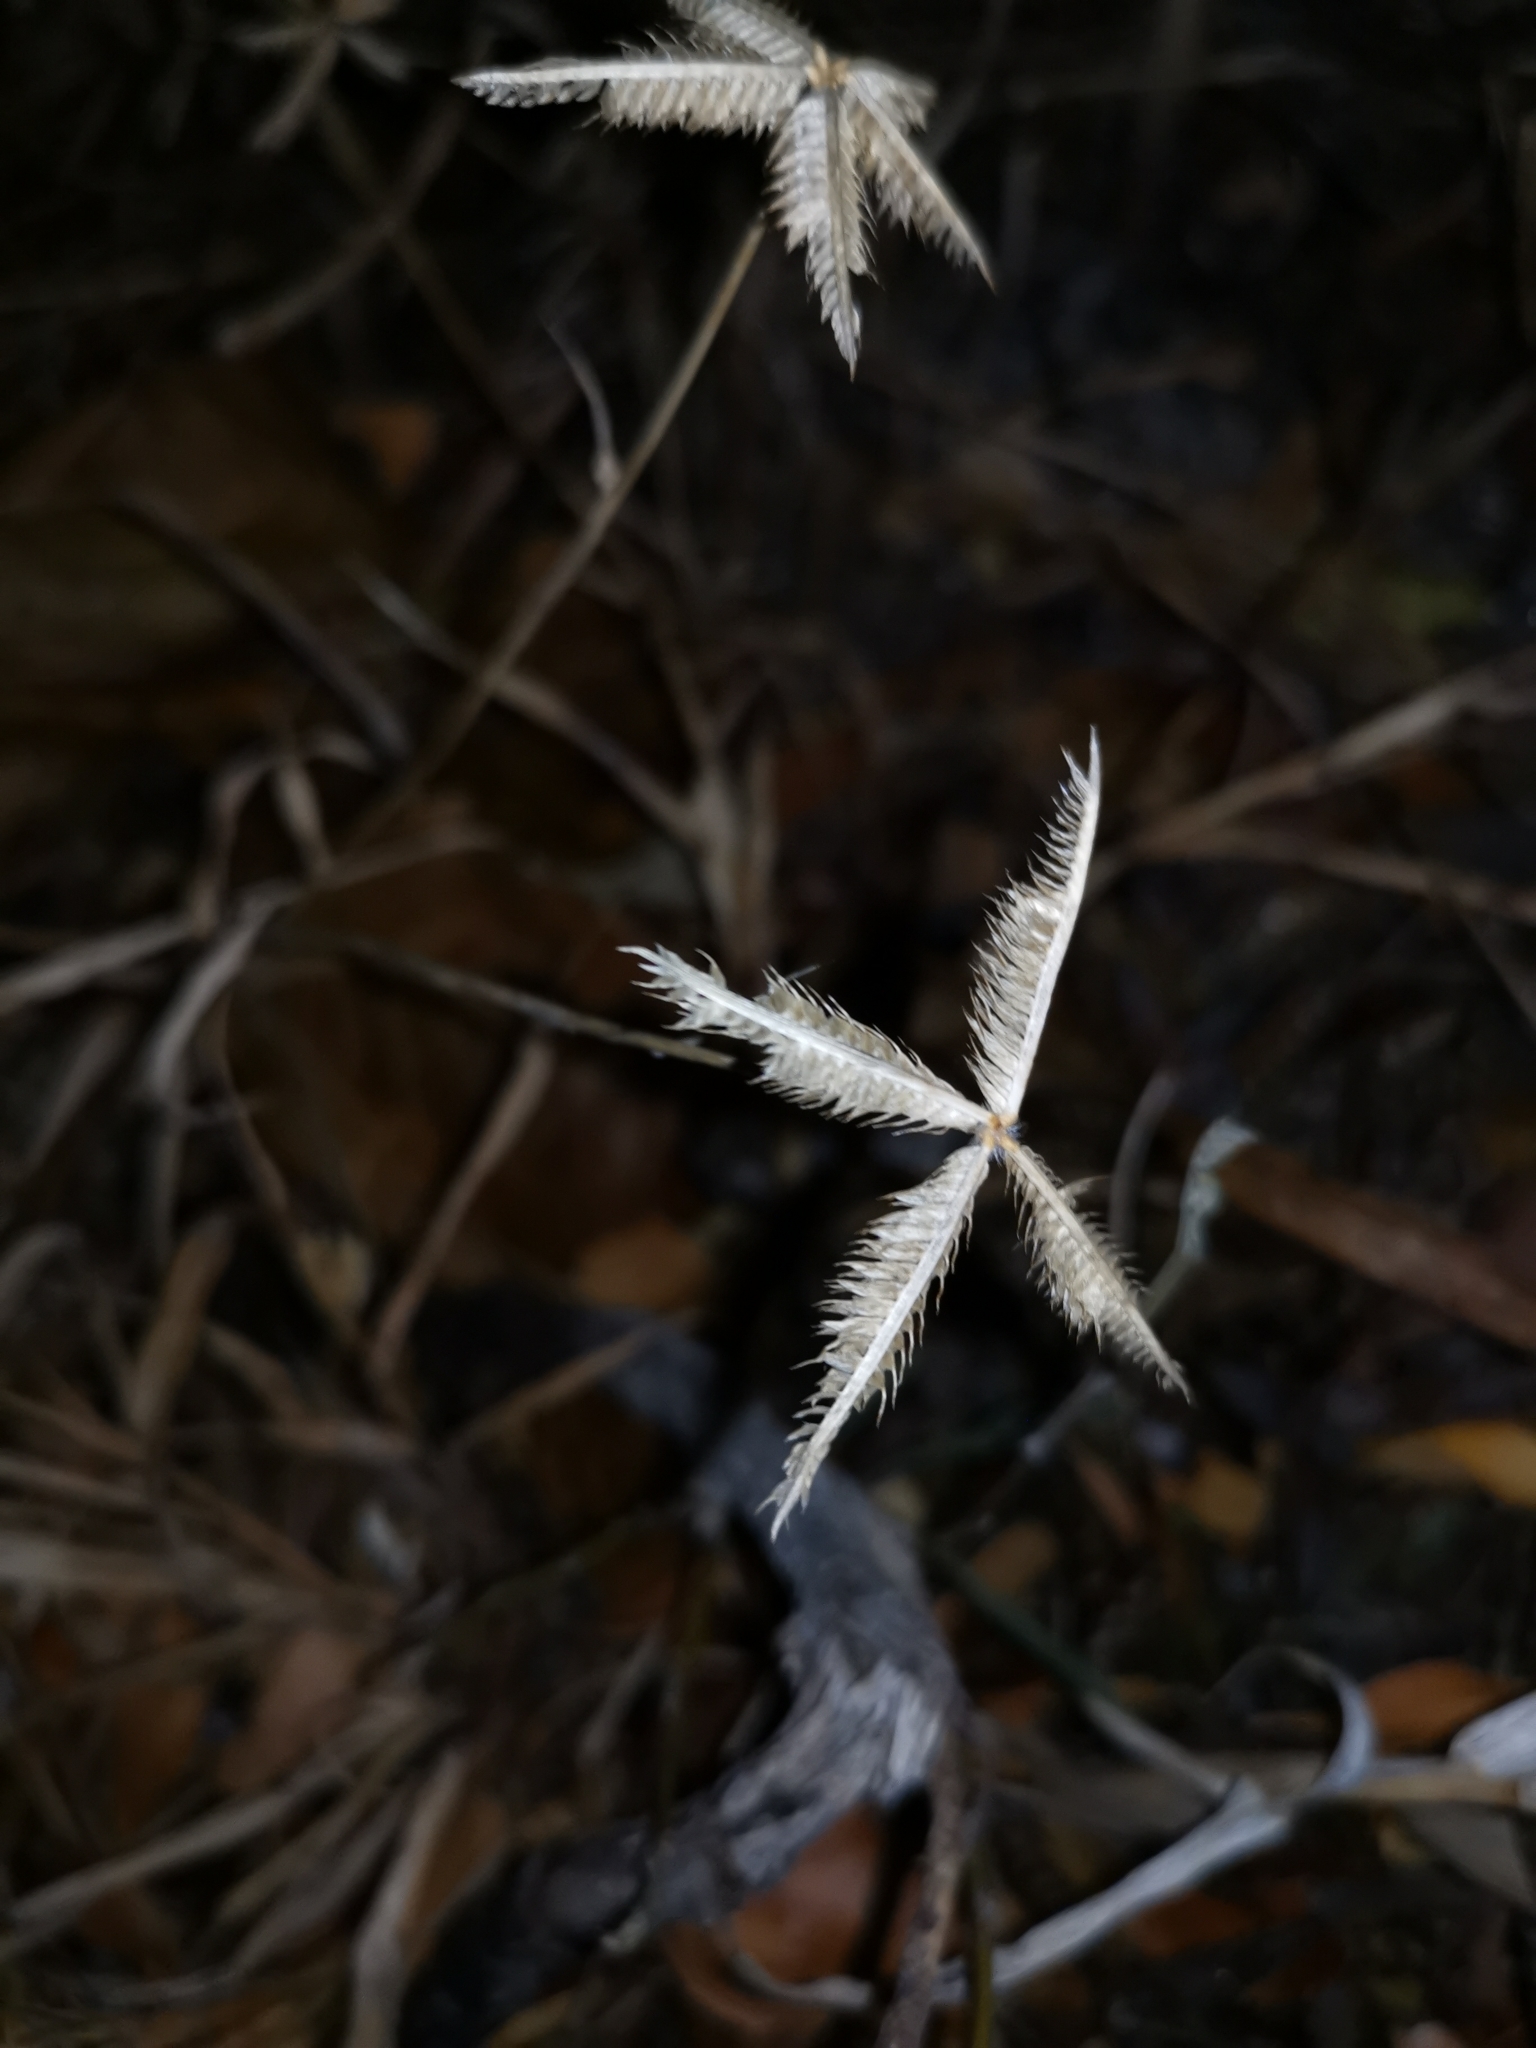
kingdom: Plantae
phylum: Tracheophyta
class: Liliopsida
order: Poales
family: Poaceae
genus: Dactyloctenium
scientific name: Dactyloctenium aegyptium
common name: Egyptian grass
